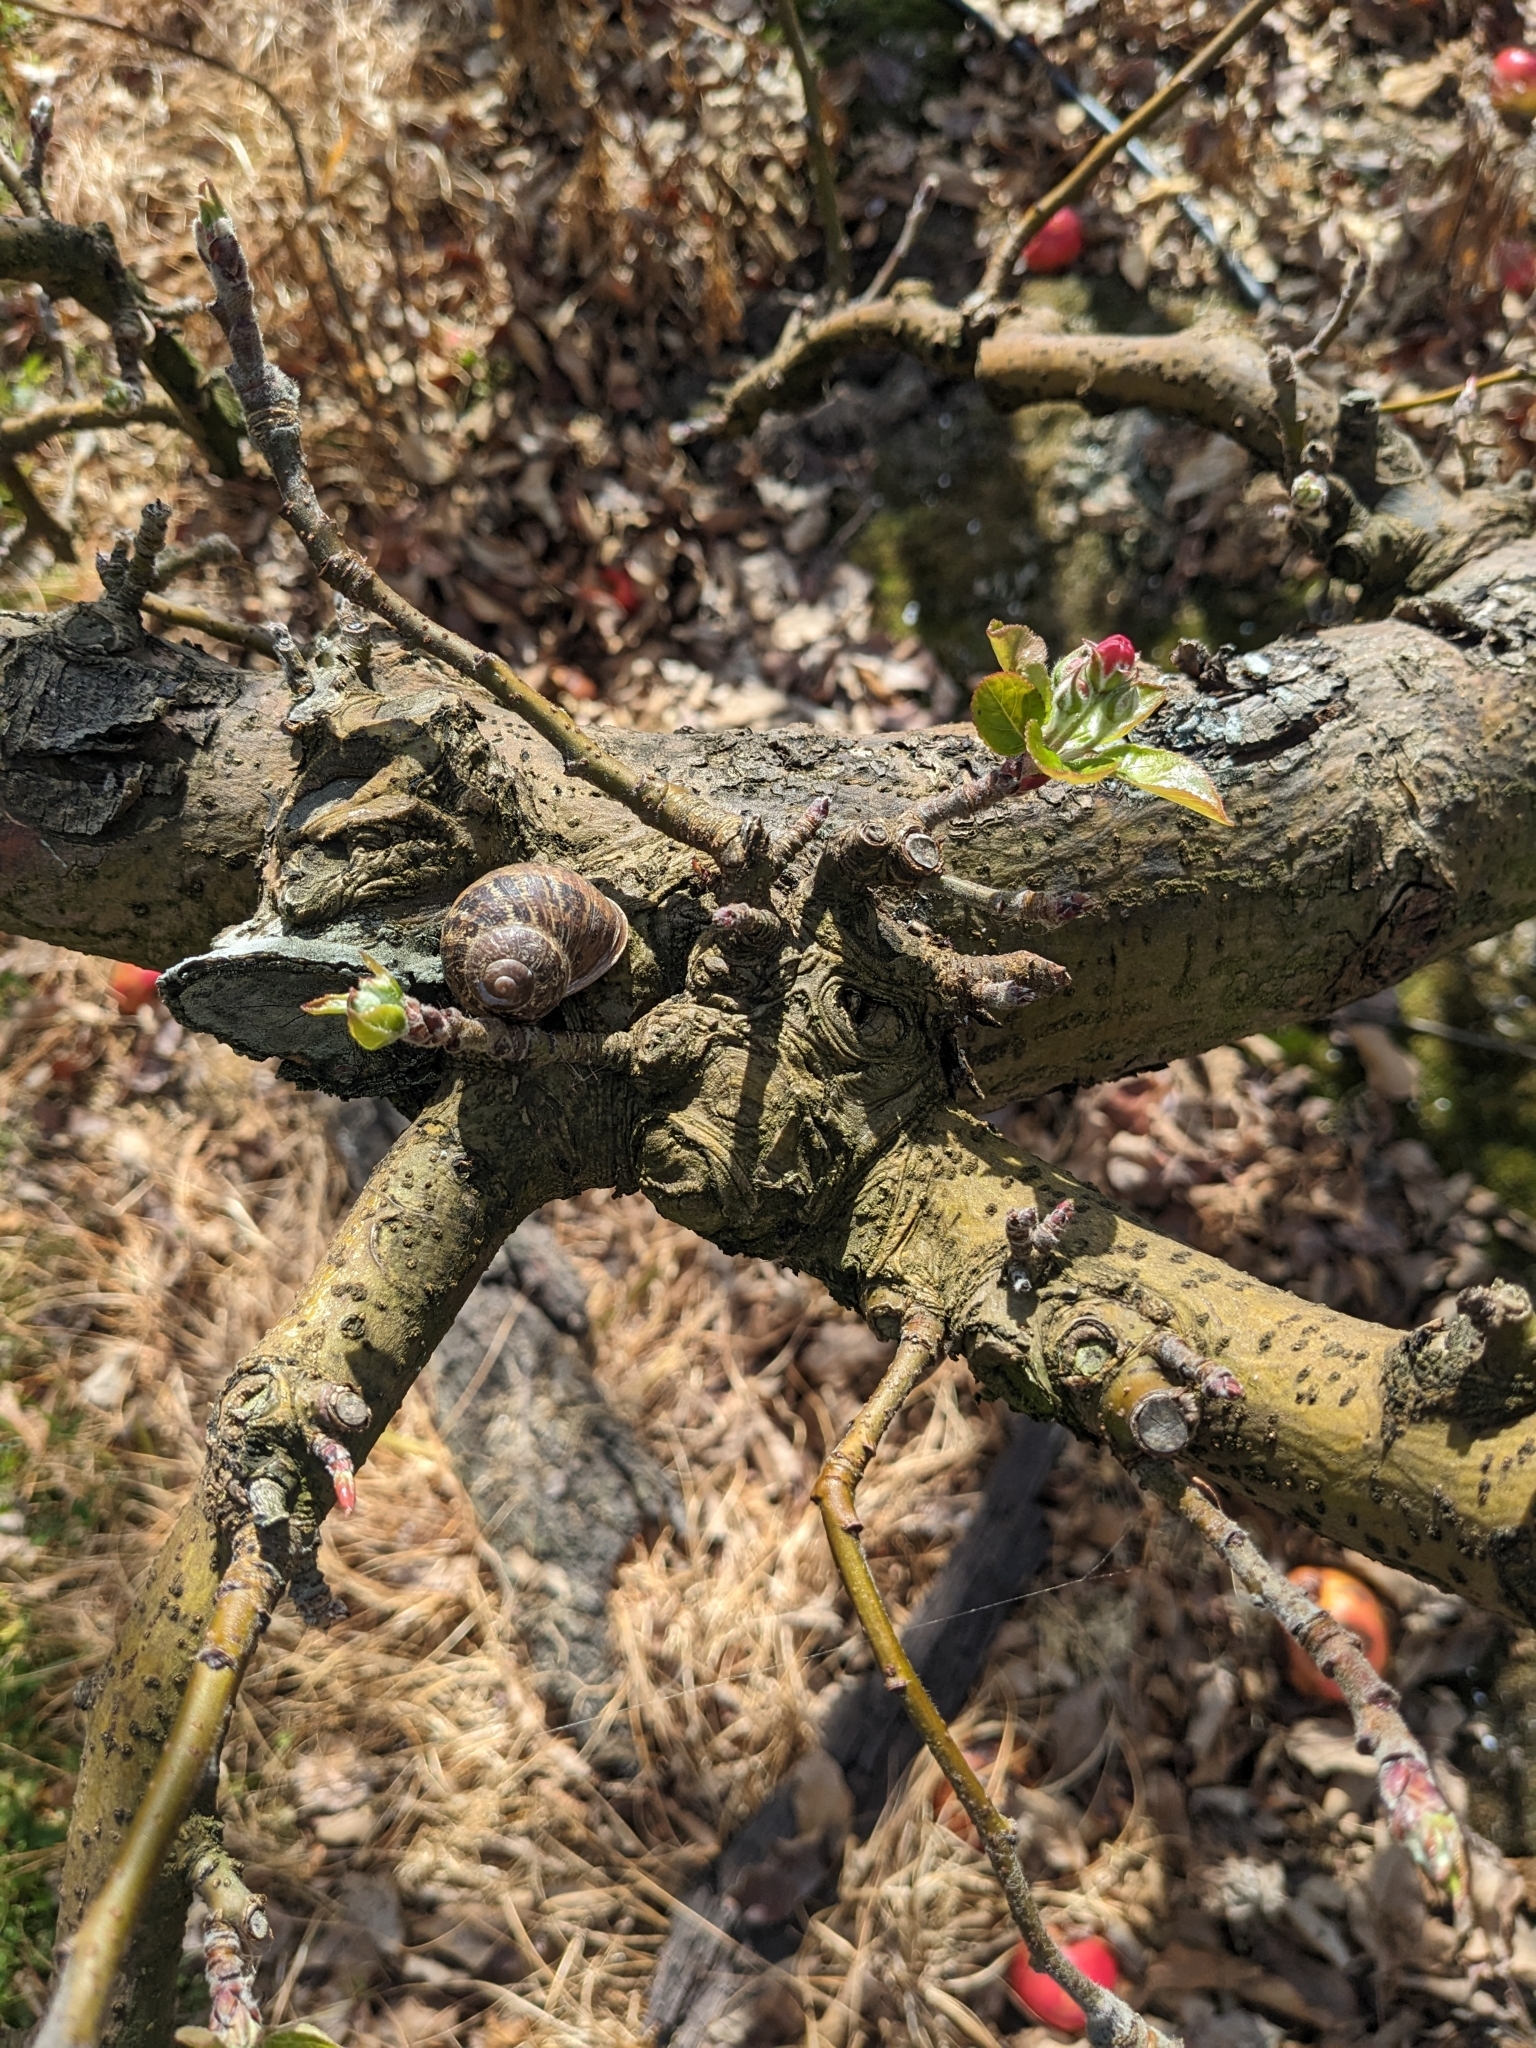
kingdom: Animalia
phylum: Mollusca
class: Gastropoda
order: Stylommatophora
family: Helicidae
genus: Cornu
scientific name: Cornu aspersum
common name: Brown garden snail
